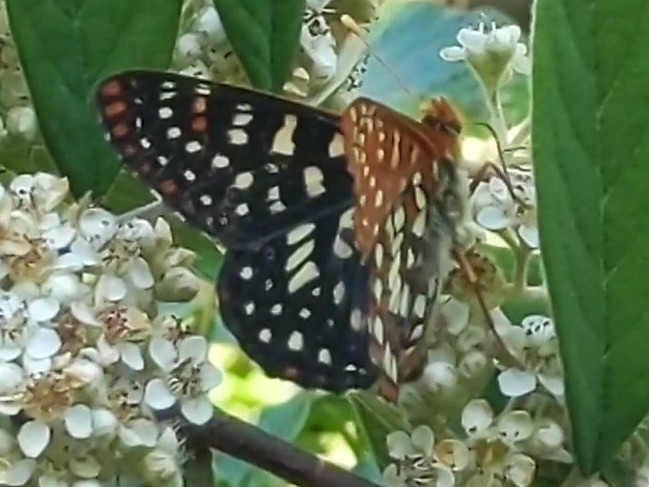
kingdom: Animalia
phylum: Arthropoda
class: Insecta
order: Lepidoptera
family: Nymphalidae
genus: Occidryas
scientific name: Occidryas chalcedona
